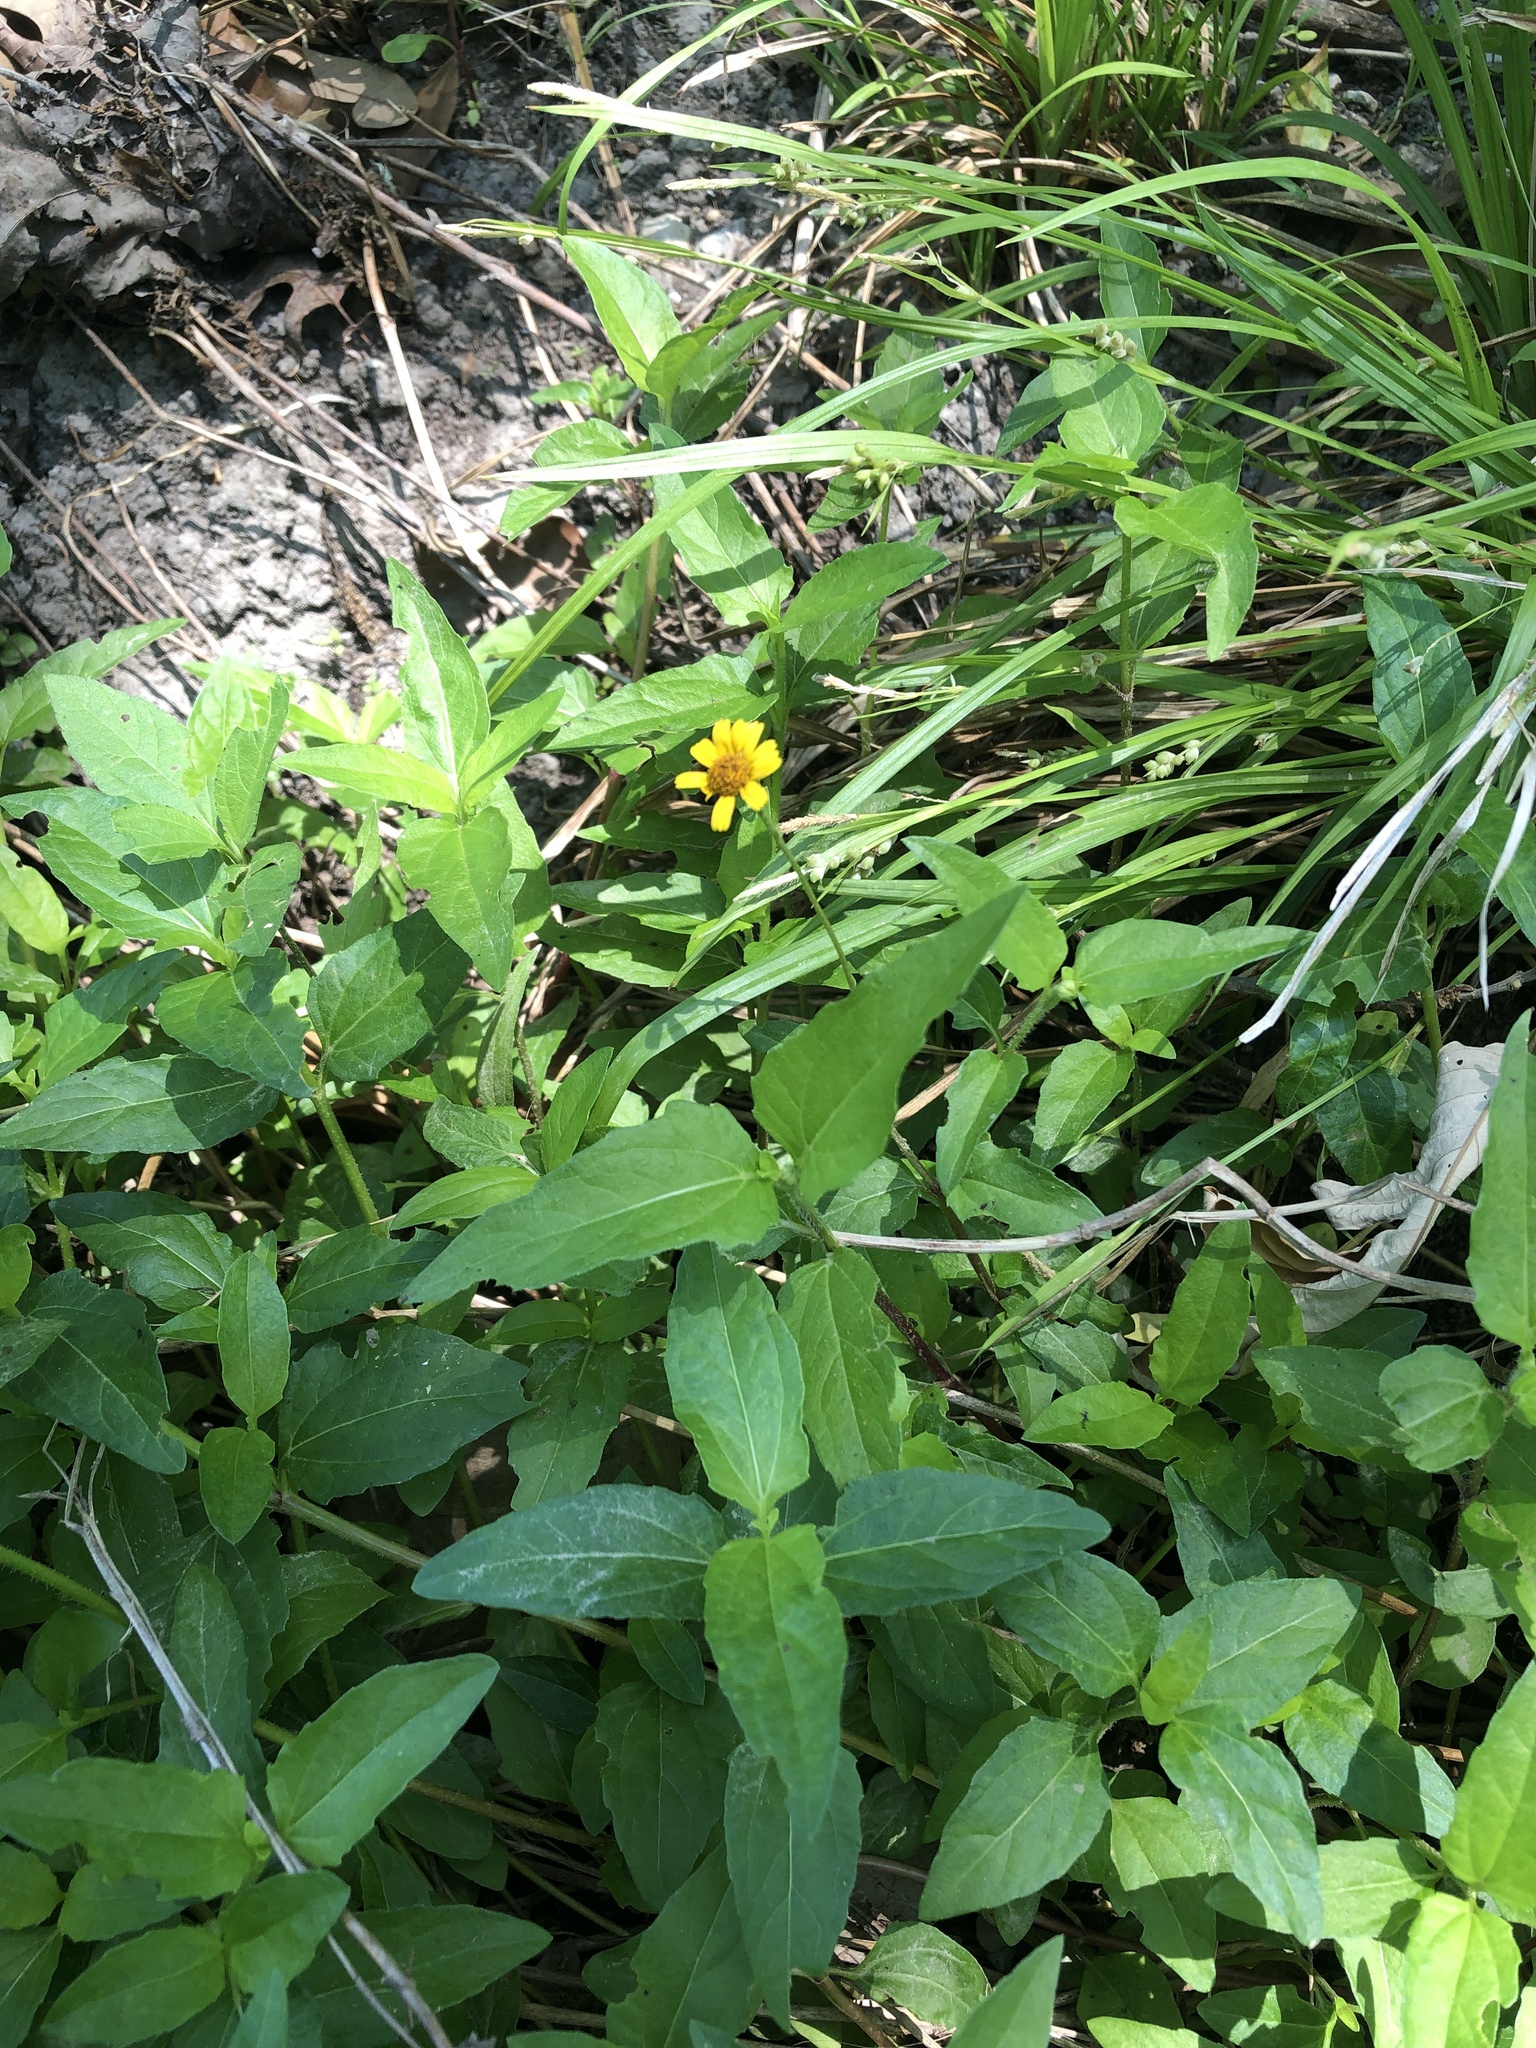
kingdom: Plantae
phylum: Tracheophyta
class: Magnoliopsida
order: Asterales
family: Asteraceae
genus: Acmella
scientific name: Acmella repens
